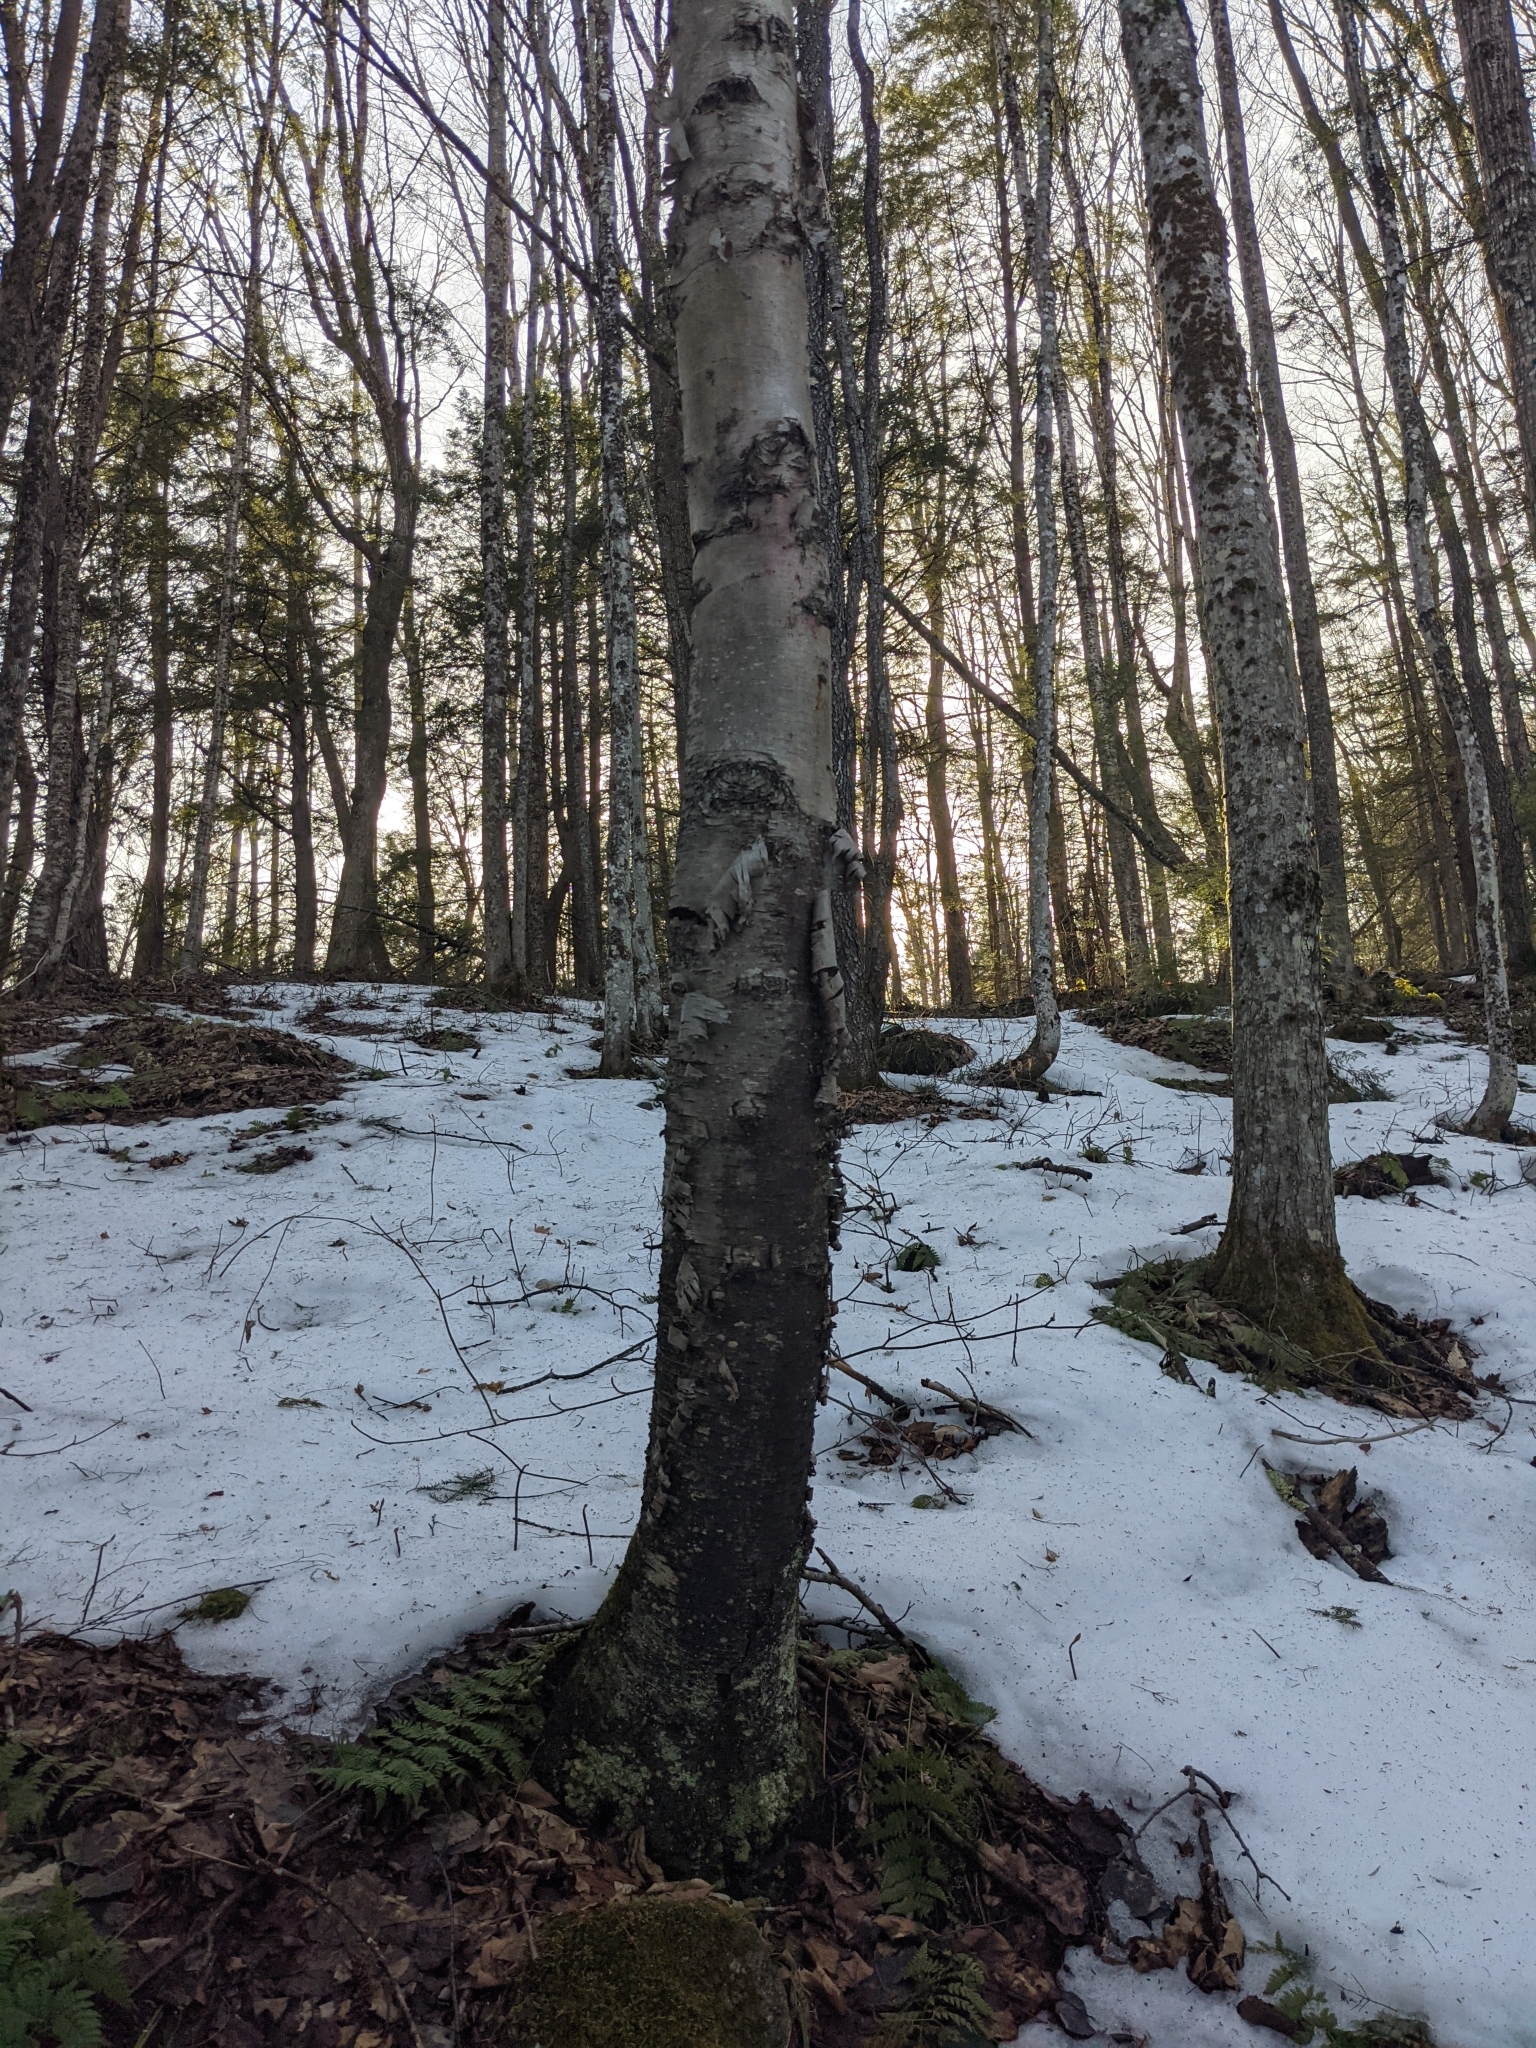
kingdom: Plantae
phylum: Tracheophyta
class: Magnoliopsida
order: Fagales
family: Betulaceae
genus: Betula
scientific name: Betula papyrifera
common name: Paper birch
